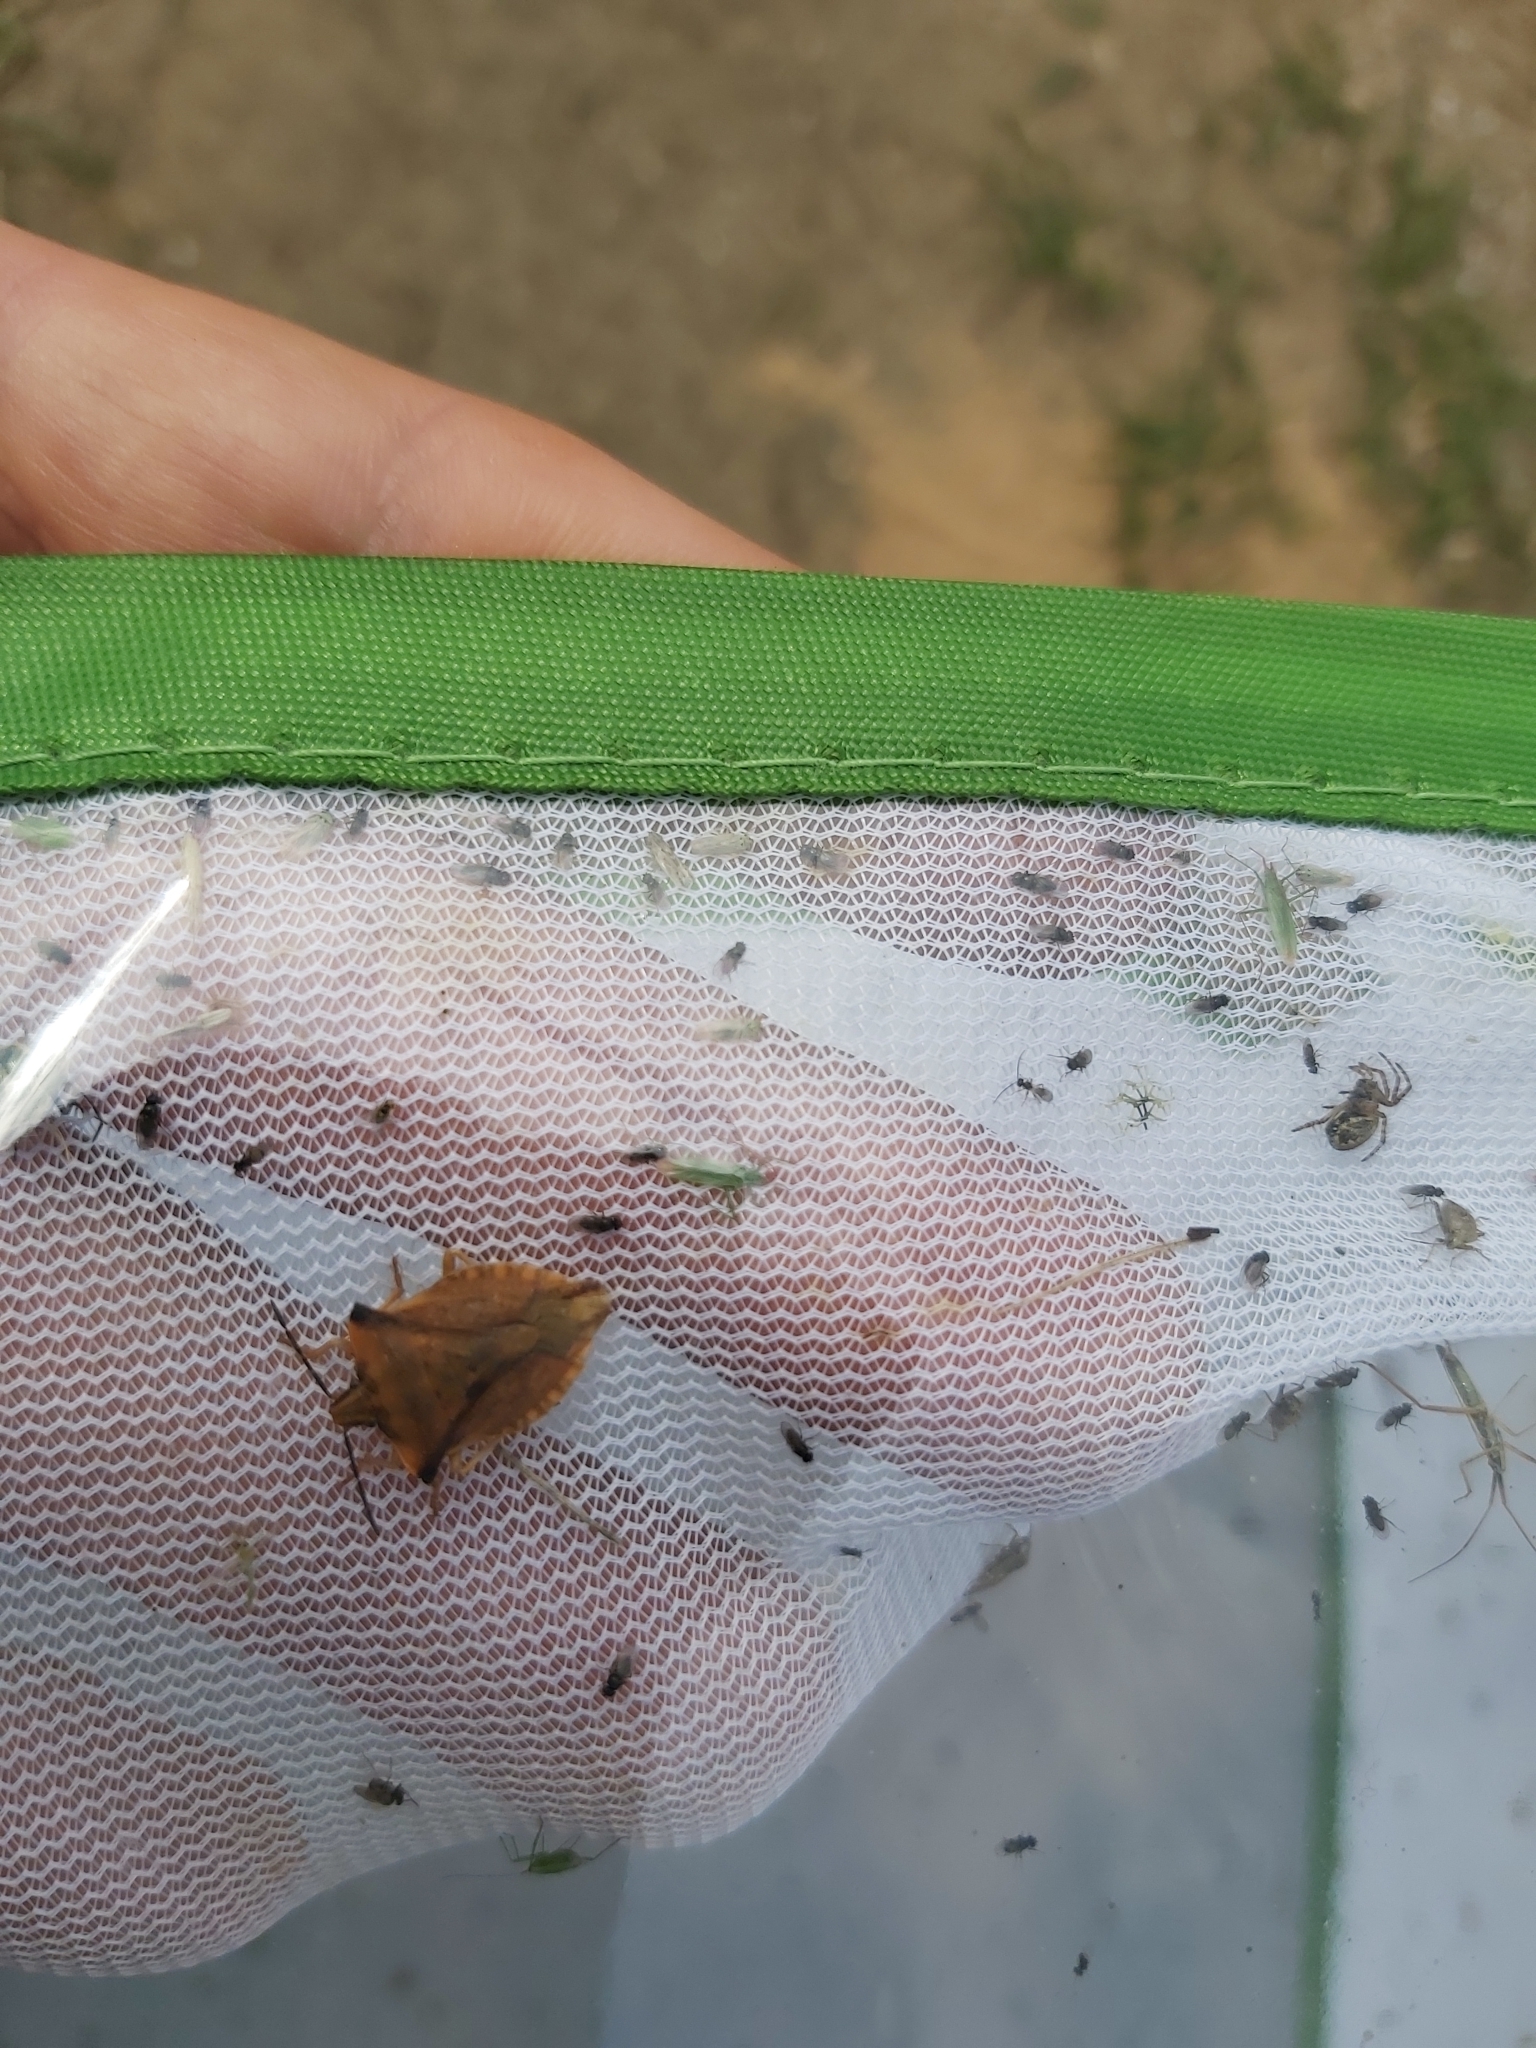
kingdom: Animalia
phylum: Arthropoda
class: Insecta
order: Hemiptera
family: Pentatomidae
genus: Carpocoris
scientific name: Carpocoris fuscispinus
